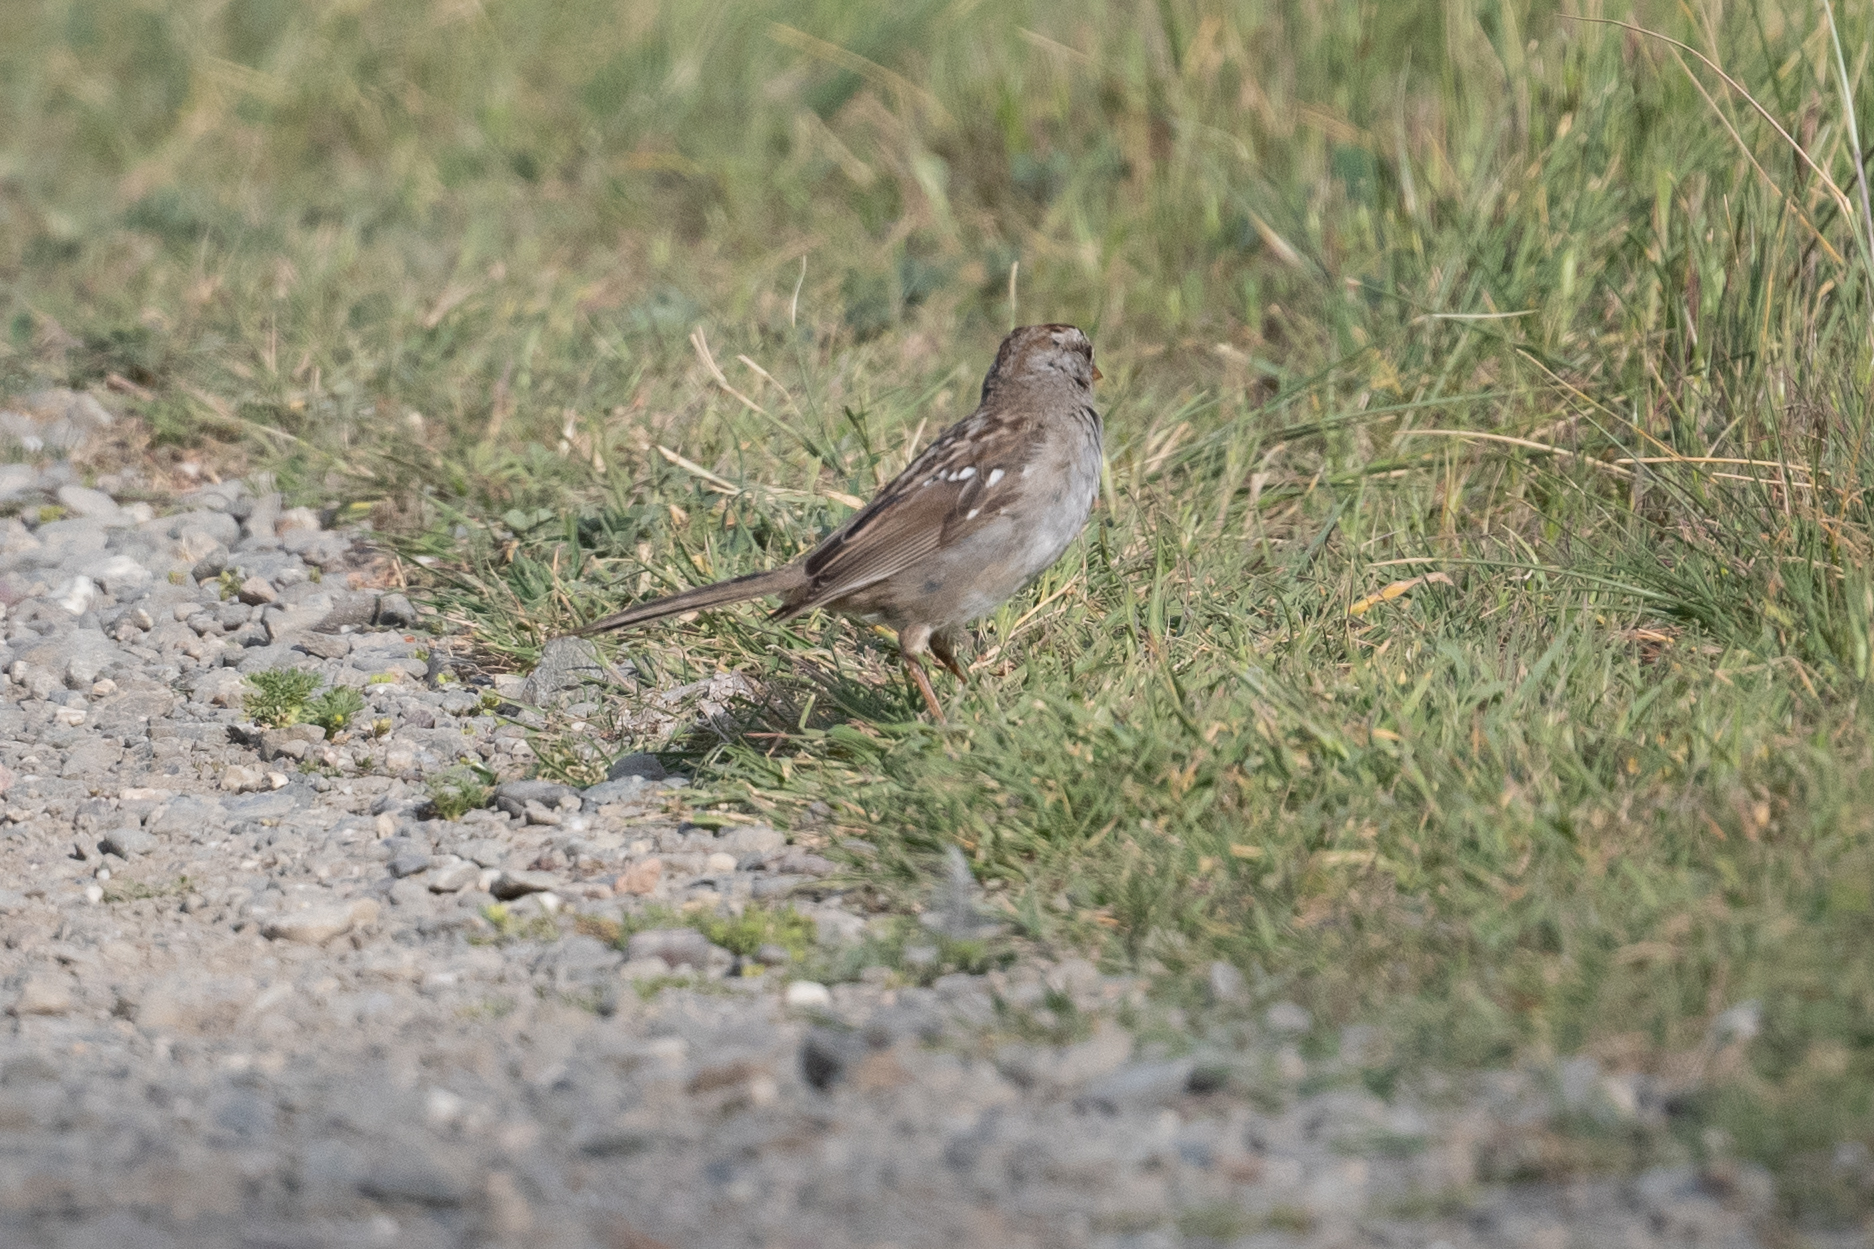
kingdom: Animalia
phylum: Chordata
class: Aves
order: Passeriformes
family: Passerellidae
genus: Zonotrichia
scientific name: Zonotrichia leucophrys
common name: White-crowned sparrow
